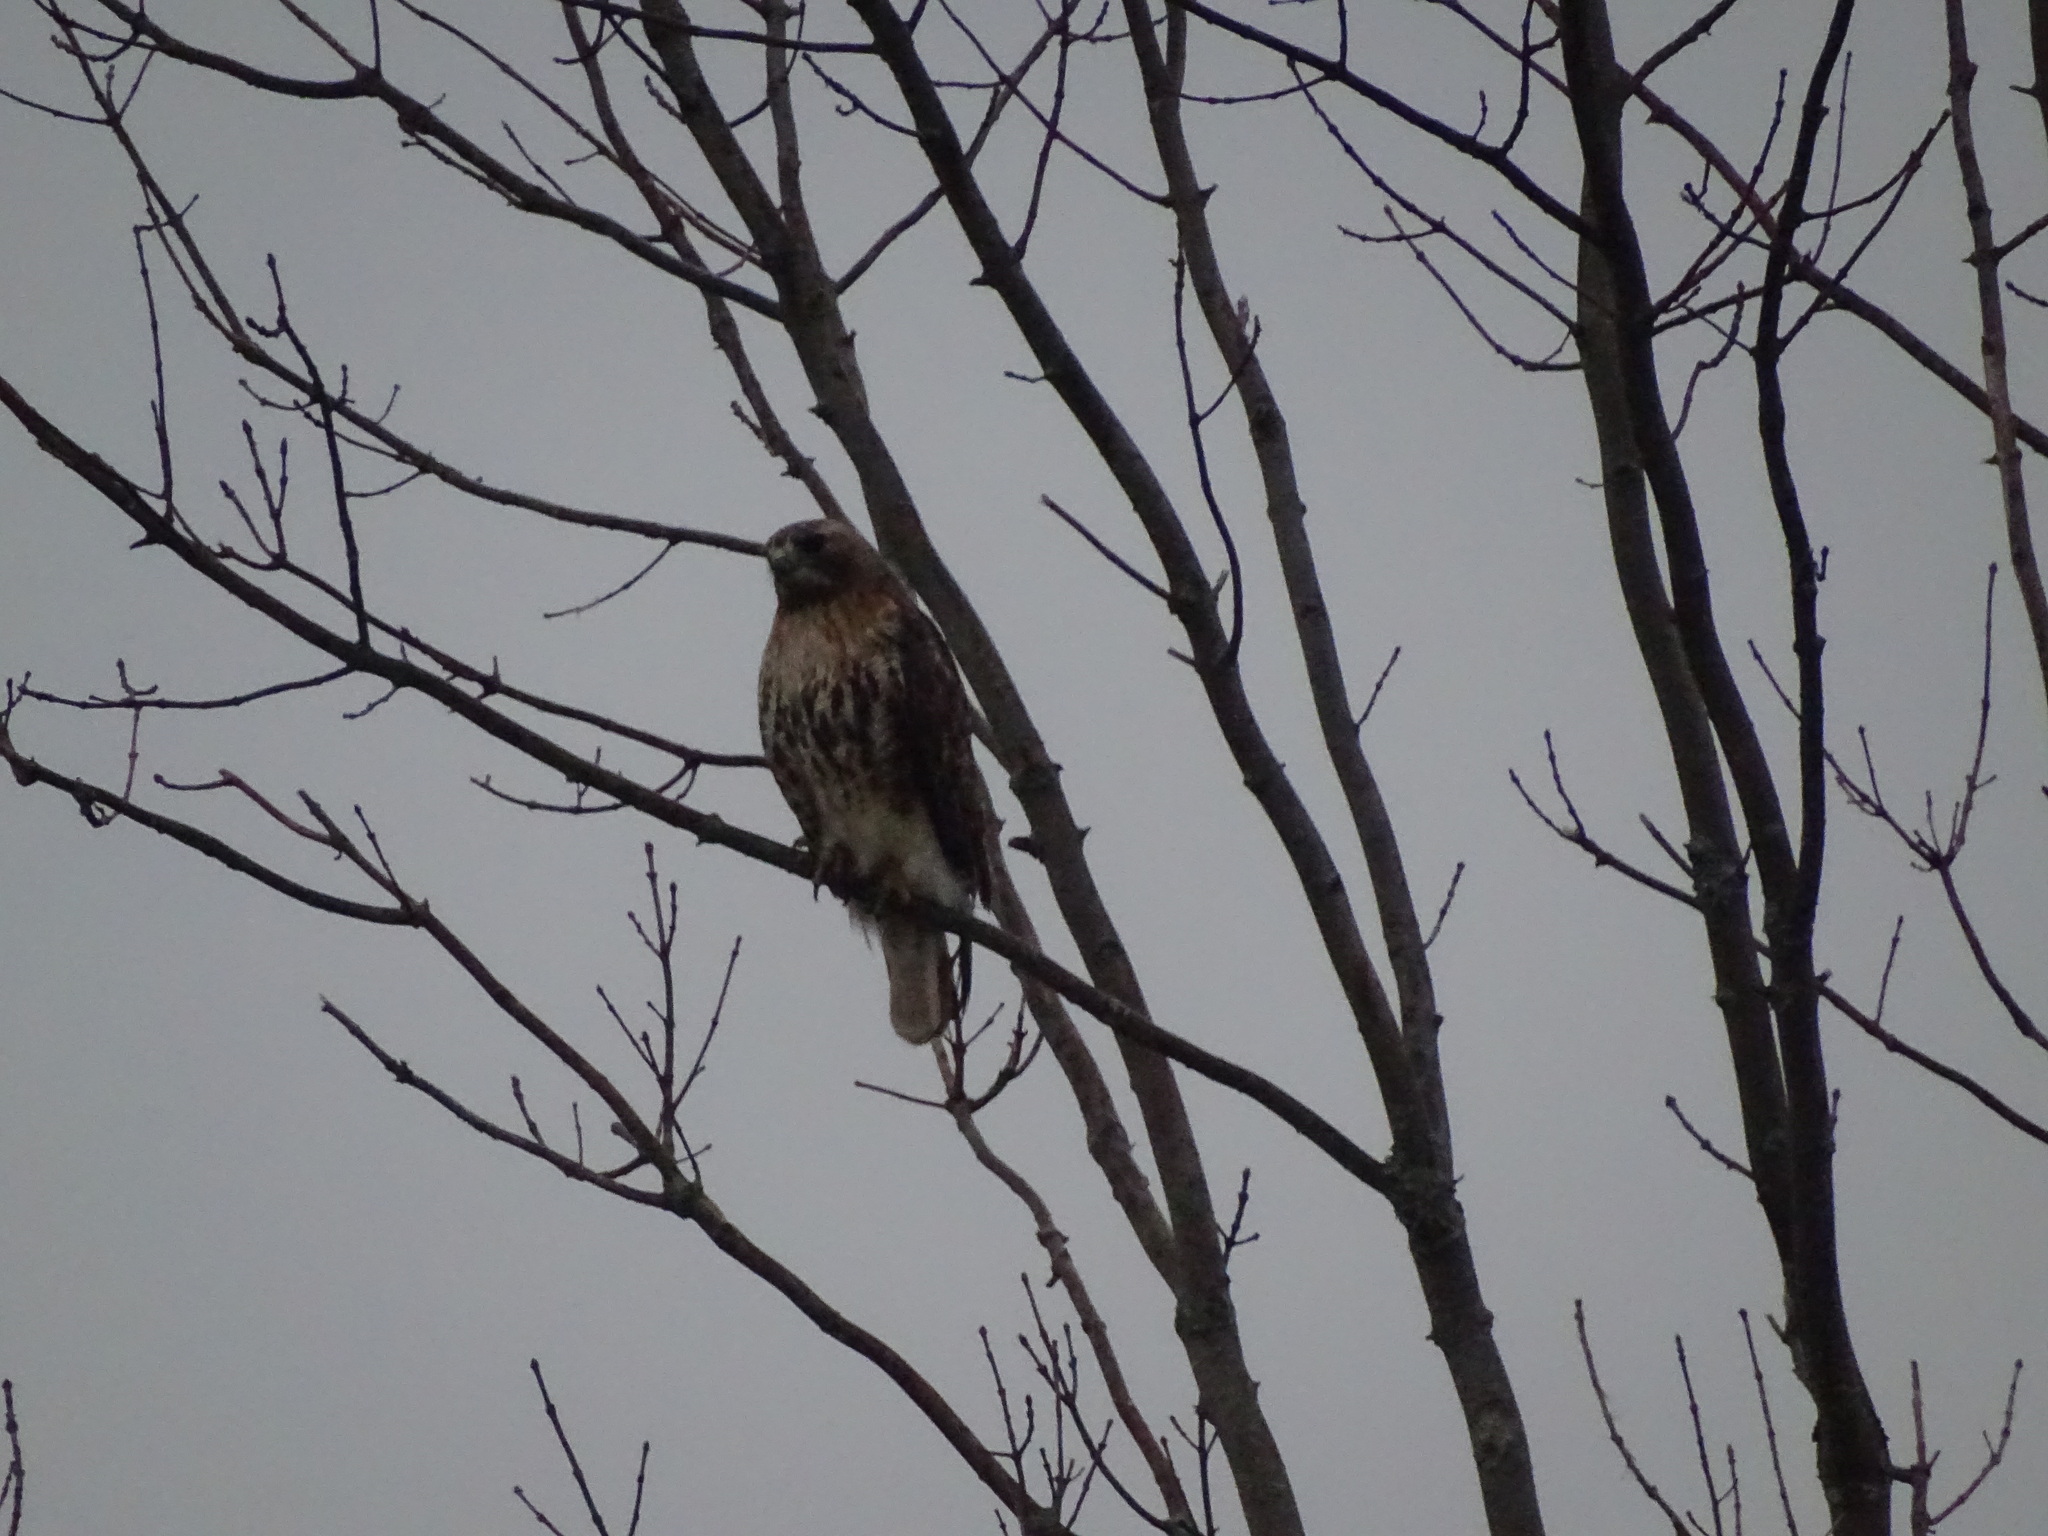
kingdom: Animalia
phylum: Chordata
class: Aves
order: Accipitriformes
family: Accipitridae
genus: Buteo
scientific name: Buteo jamaicensis
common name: Red-tailed hawk
